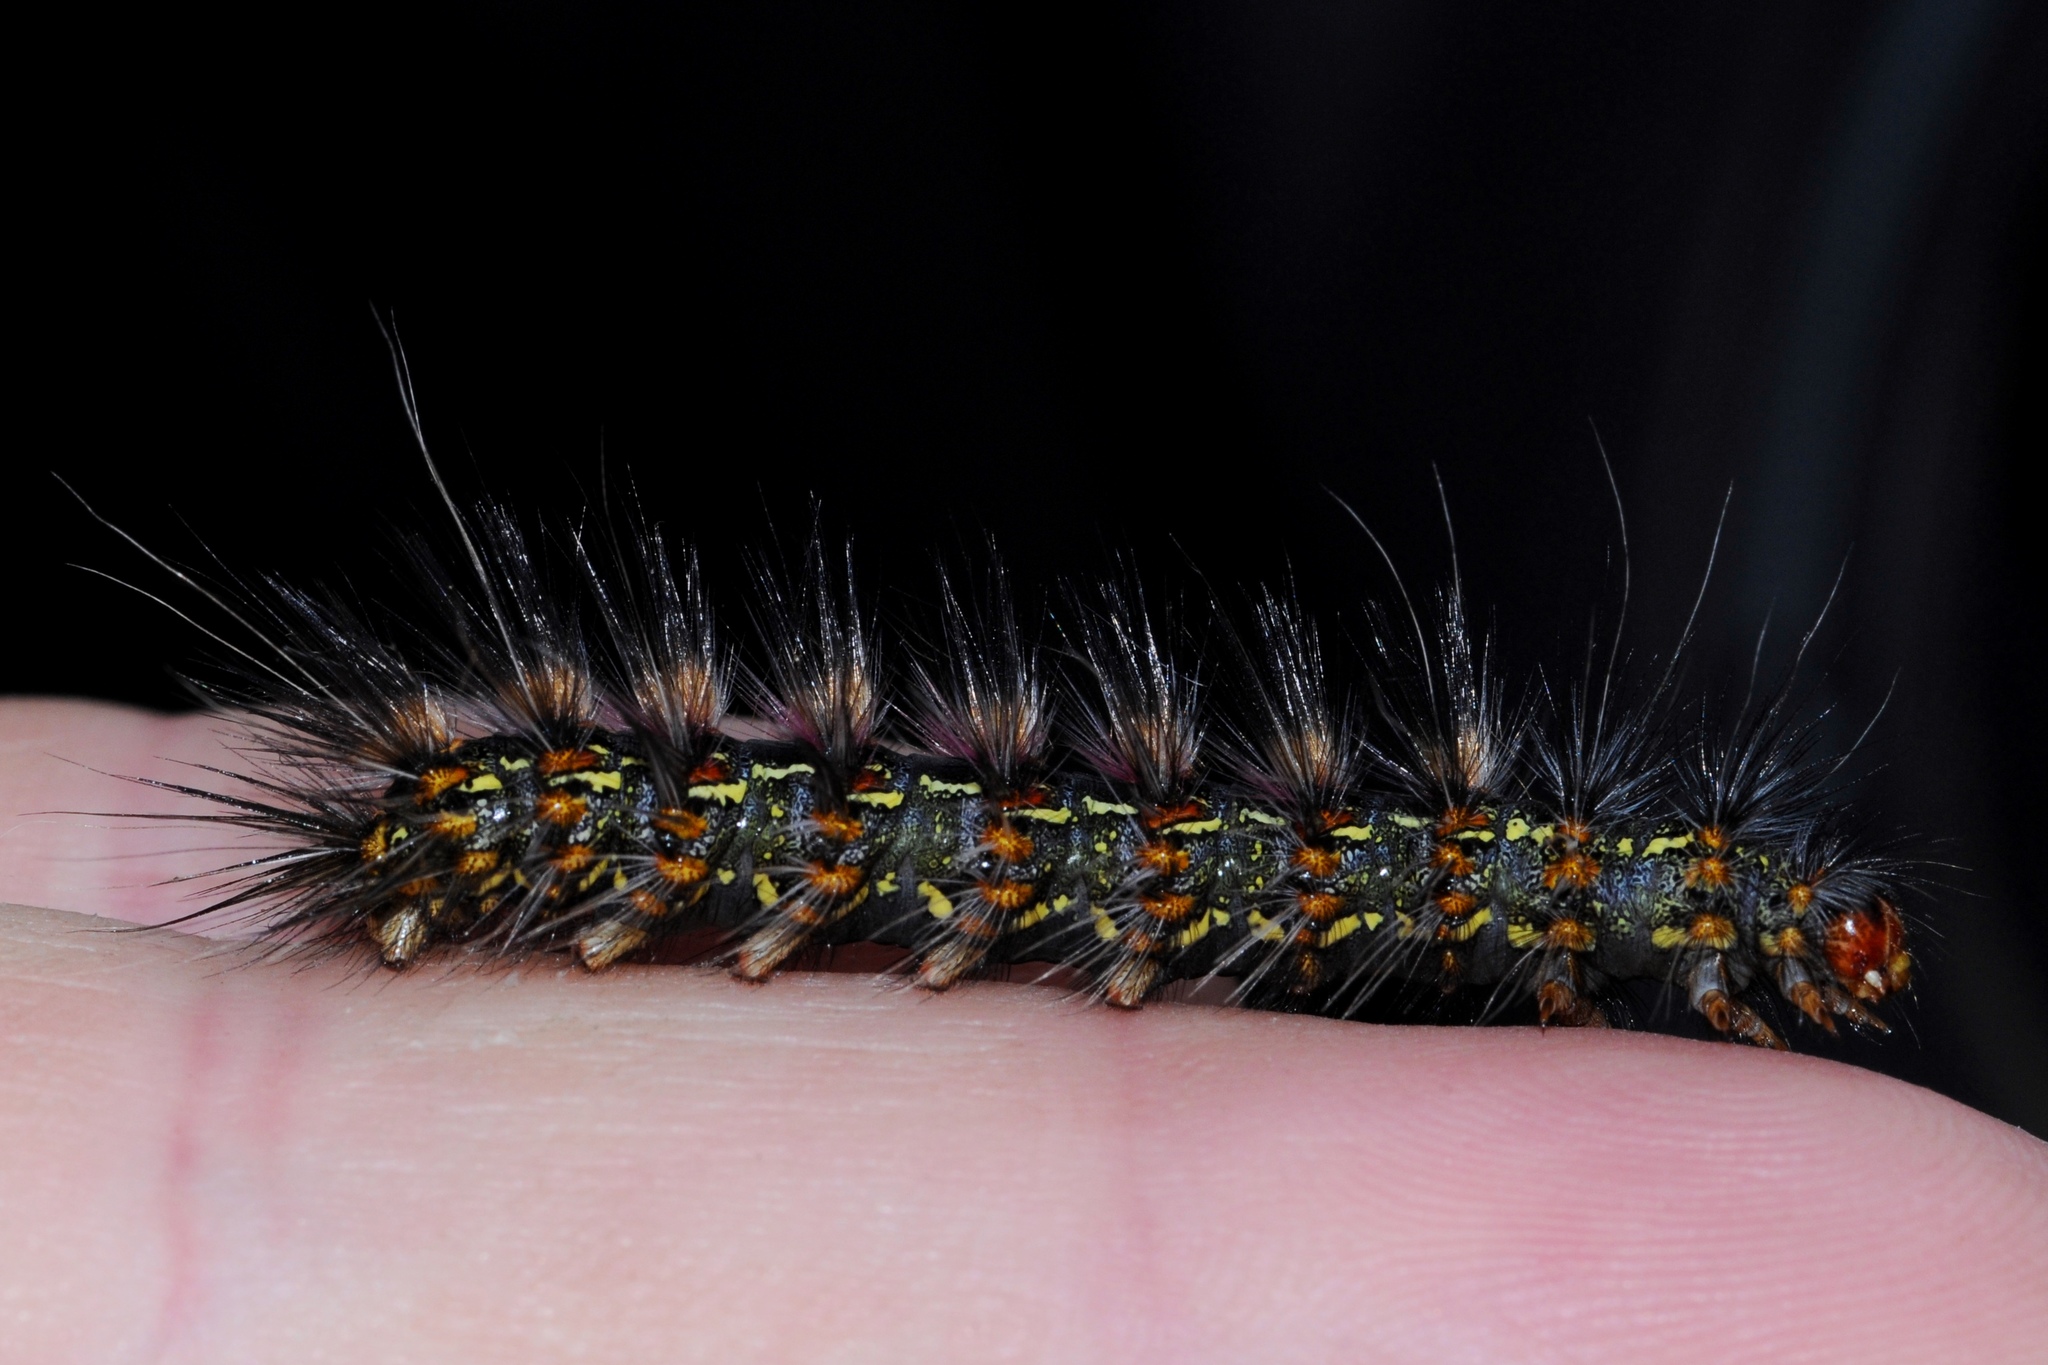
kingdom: Animalia
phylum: Arthropoda
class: Insecta
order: Lepidoptera
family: Erebidae
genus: Paralacydes
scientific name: Paralacydes vocula
